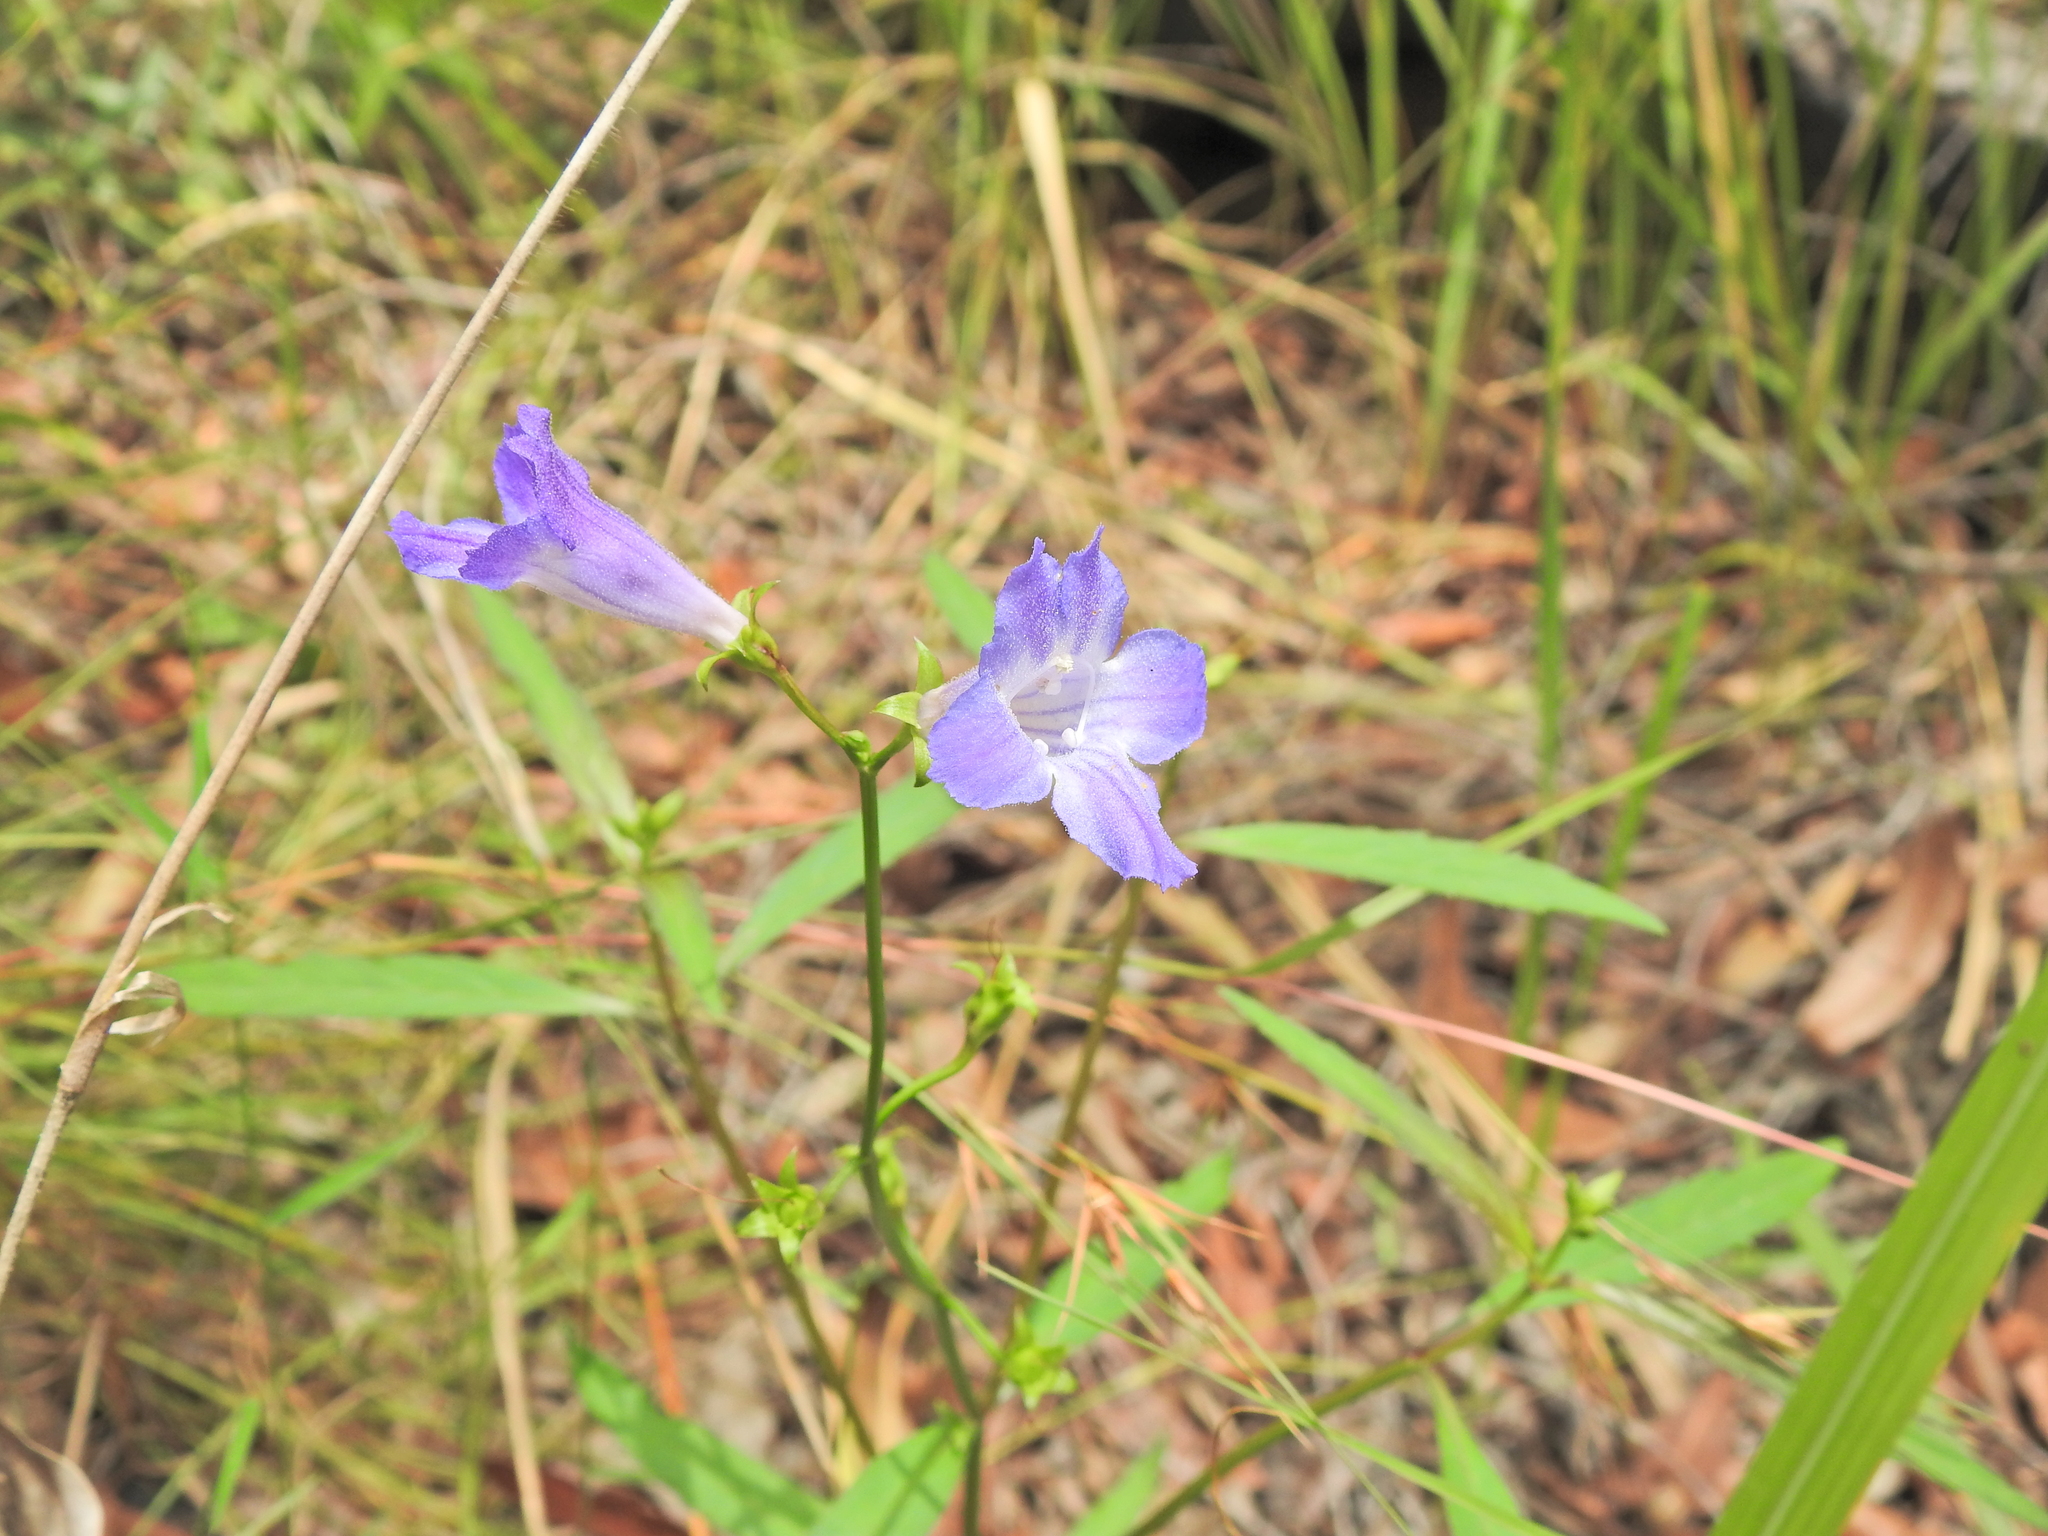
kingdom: Plantae
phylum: Tracheophyta
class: Magnoliopsida
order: Lamiales
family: Linderniaceae
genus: Artanema
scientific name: Artanema fimbriatum
